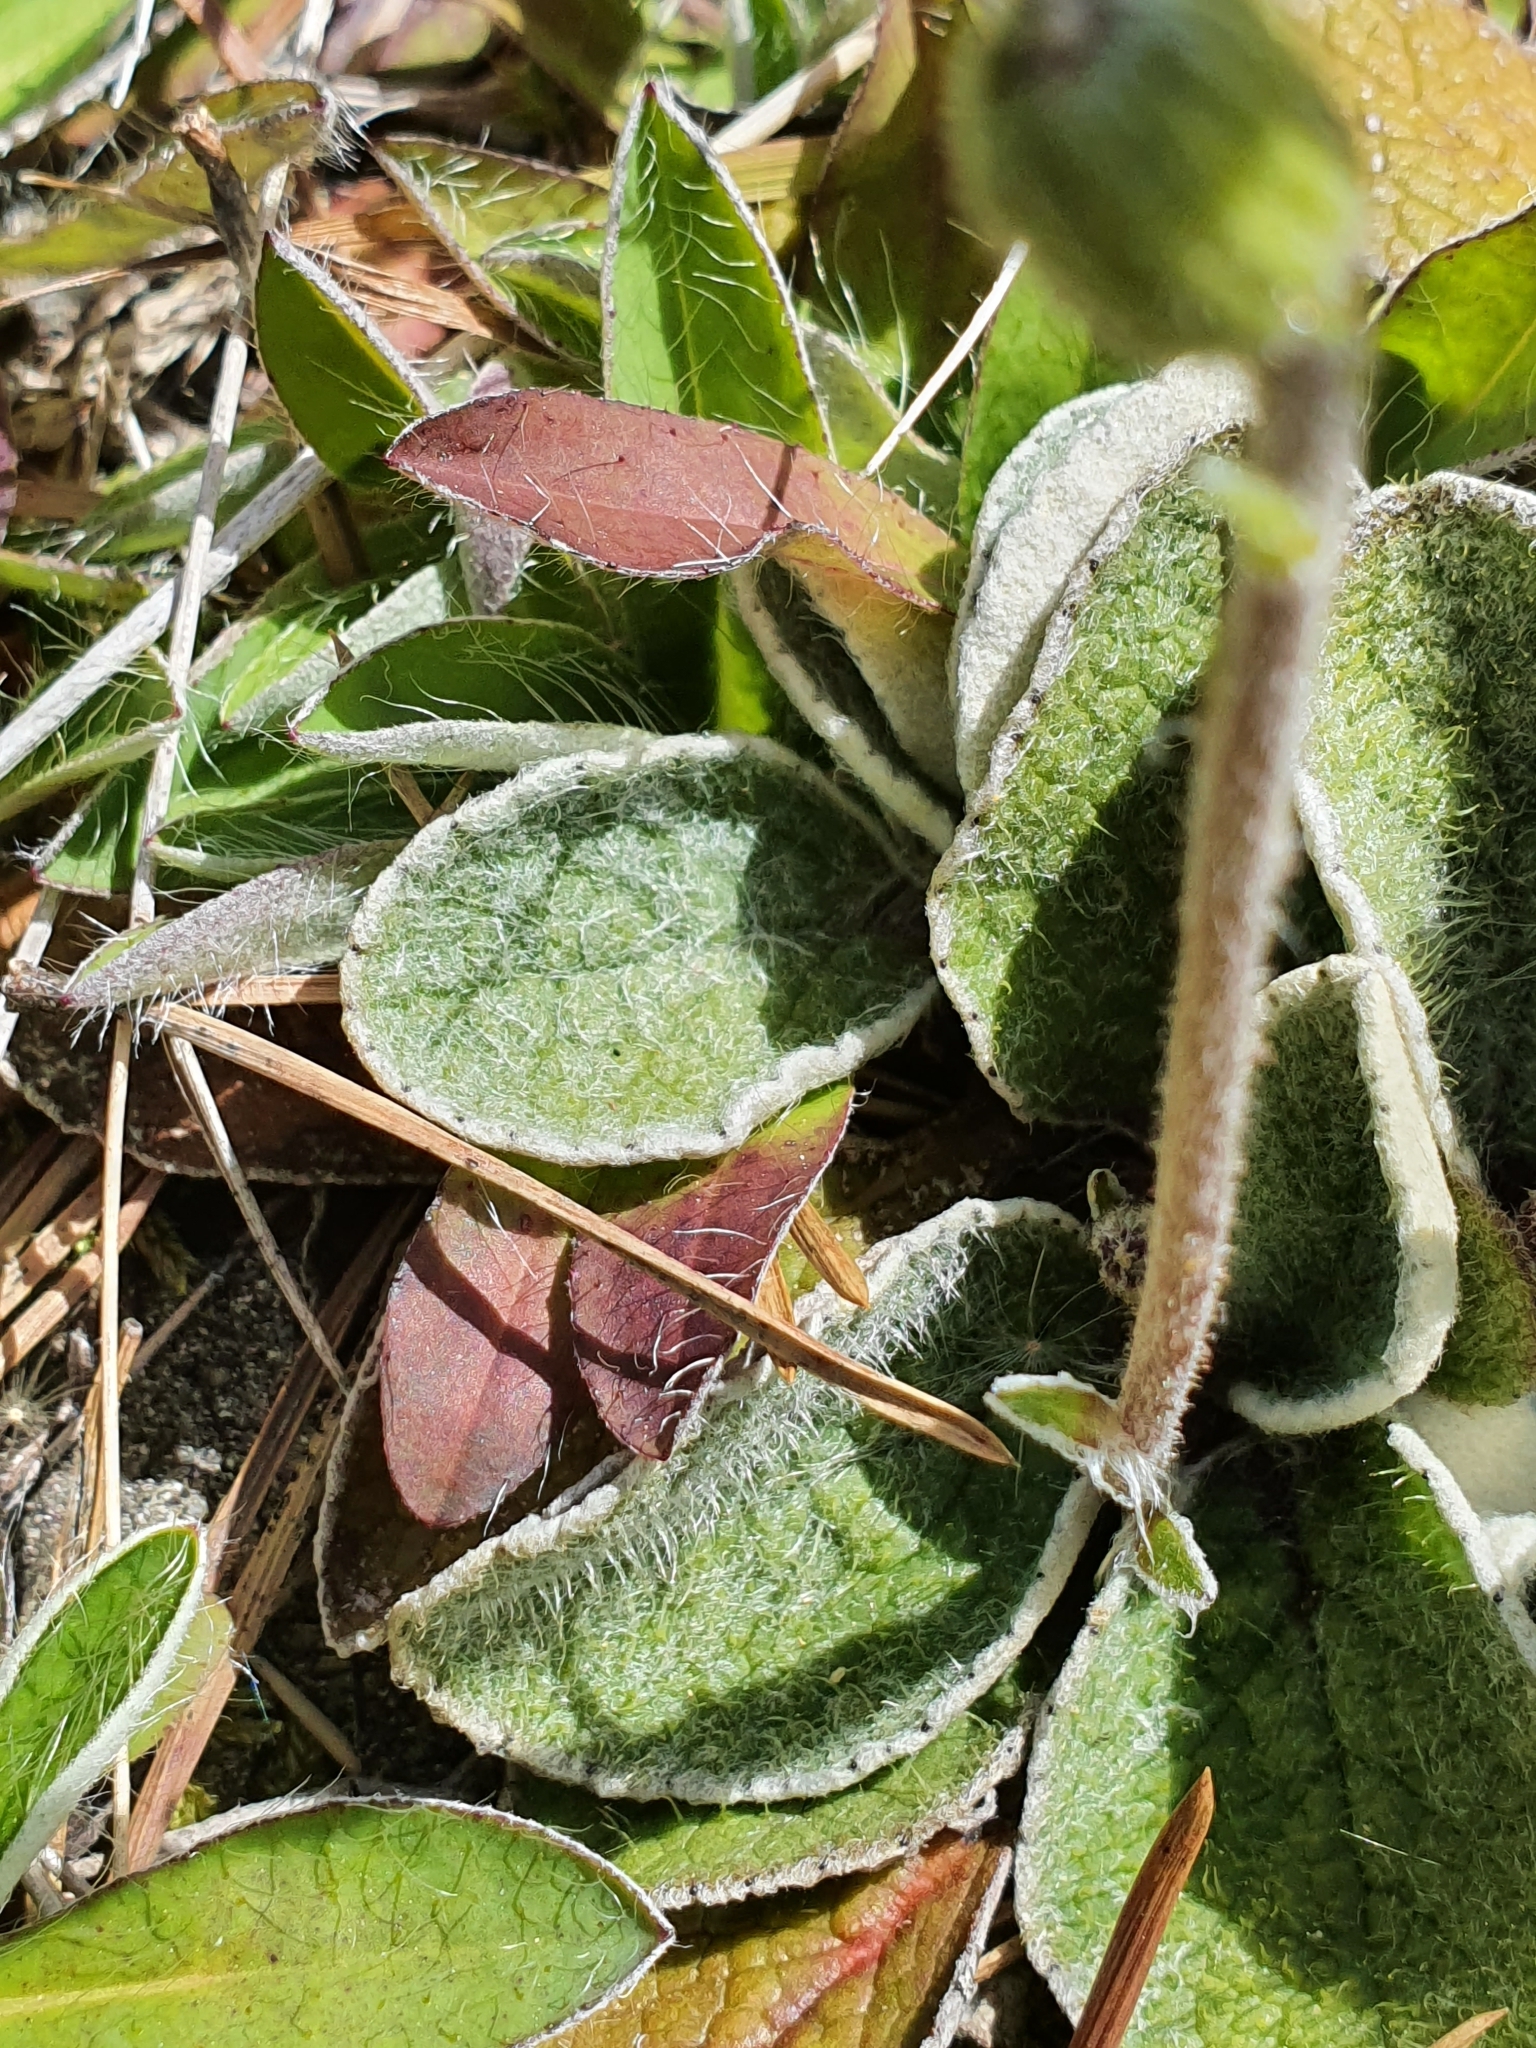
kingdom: Plantae
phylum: Tracheophyta
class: Magnoliopsida
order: Asterales
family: Asteraceae
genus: Brachyglottis
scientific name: Brachyglottis lagopus
